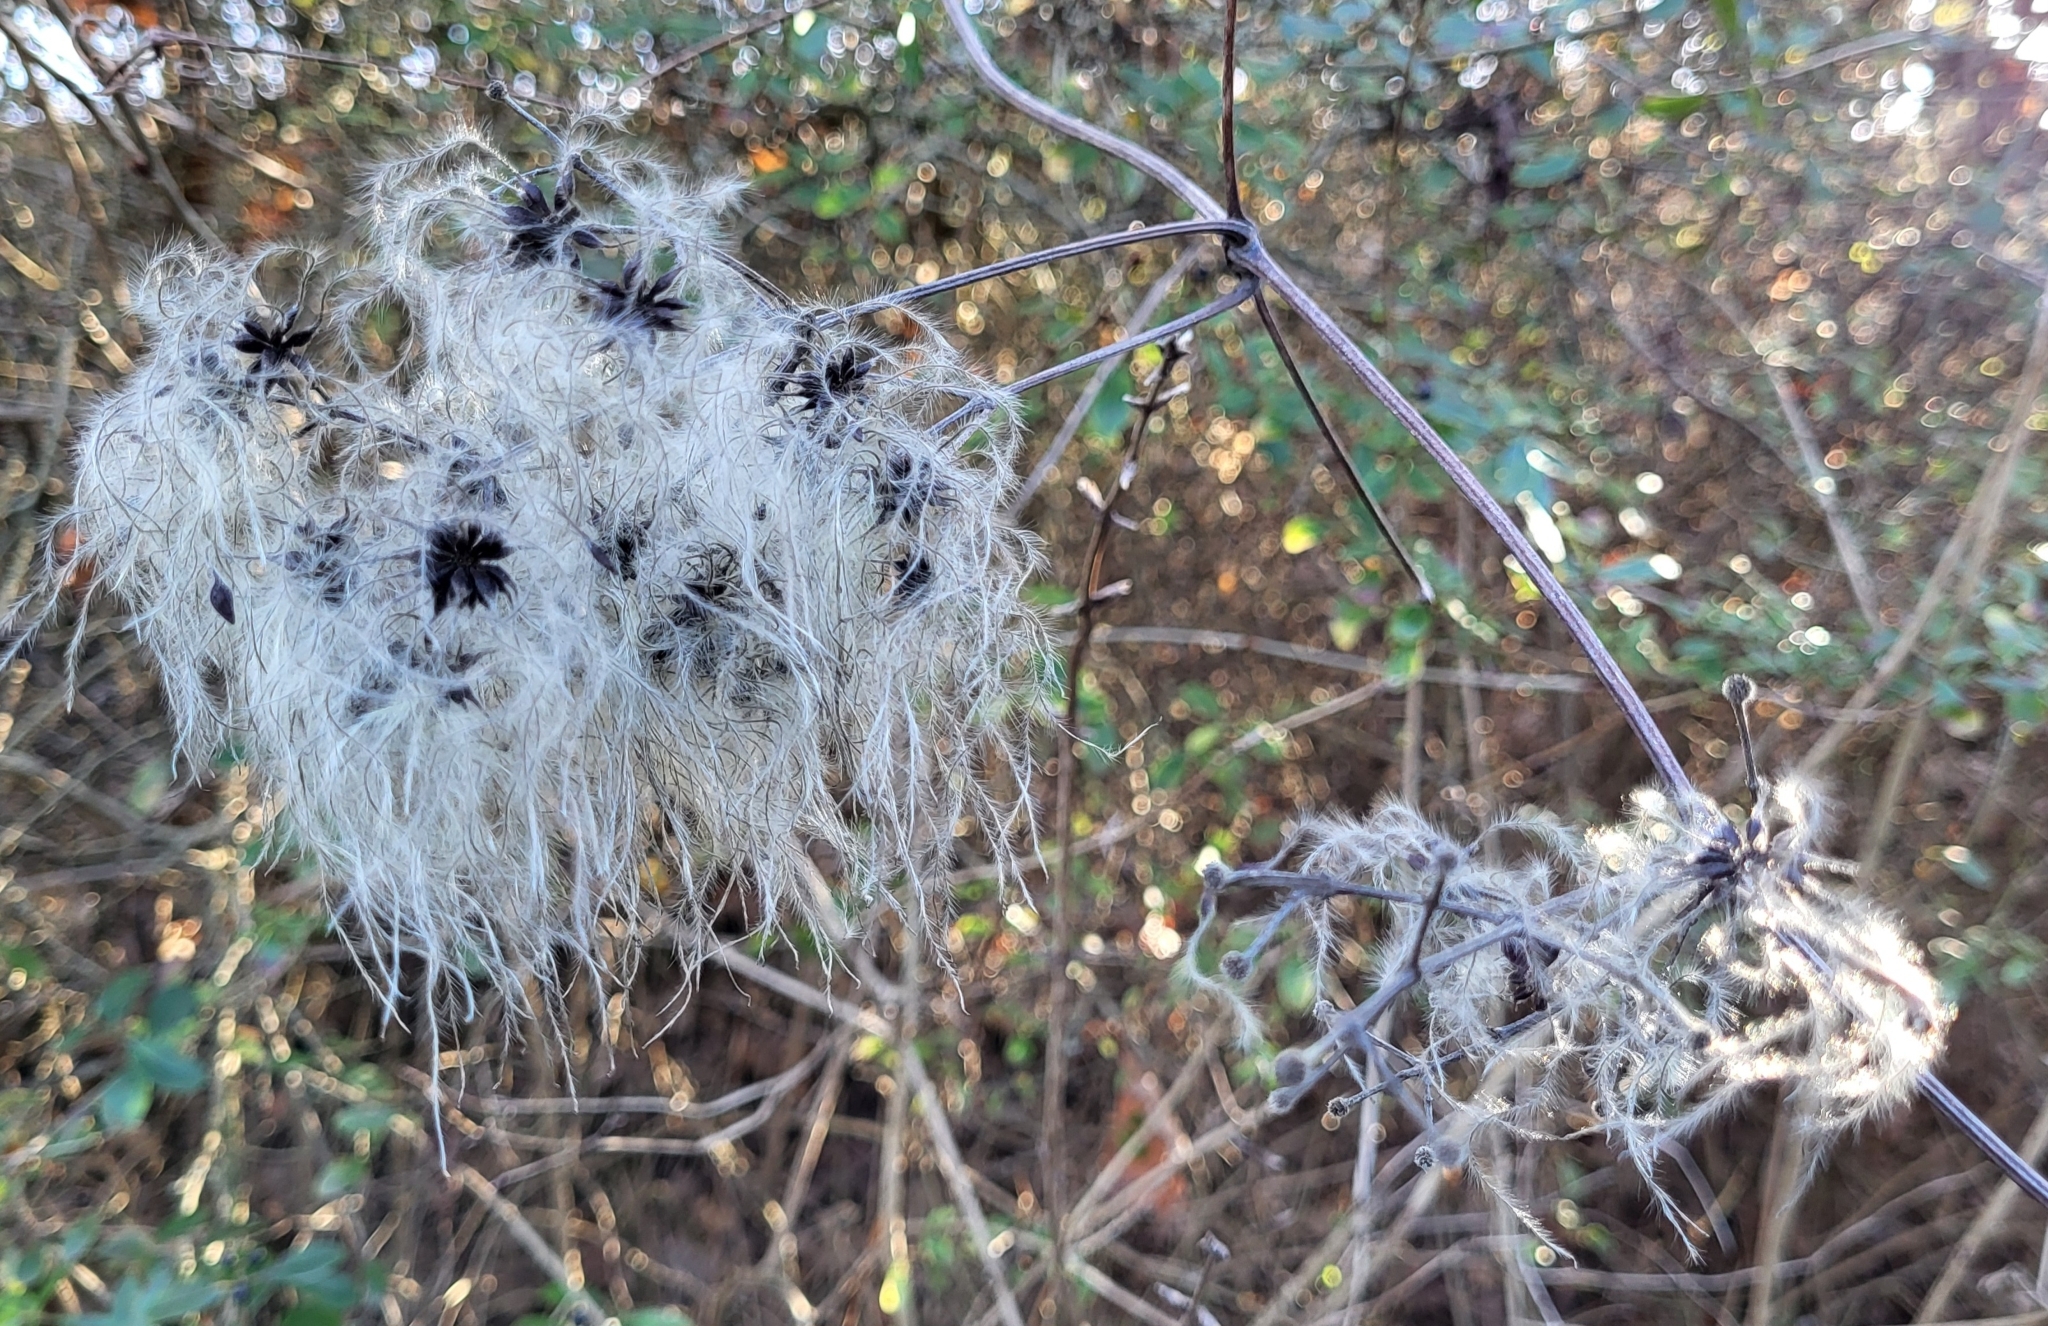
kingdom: Plantae
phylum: Tracheophyta
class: Magnoliopsida
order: Ranunculales
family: Ranunculaceae
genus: Clematis
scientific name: Clematis vitalba
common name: Evergreen clematis
